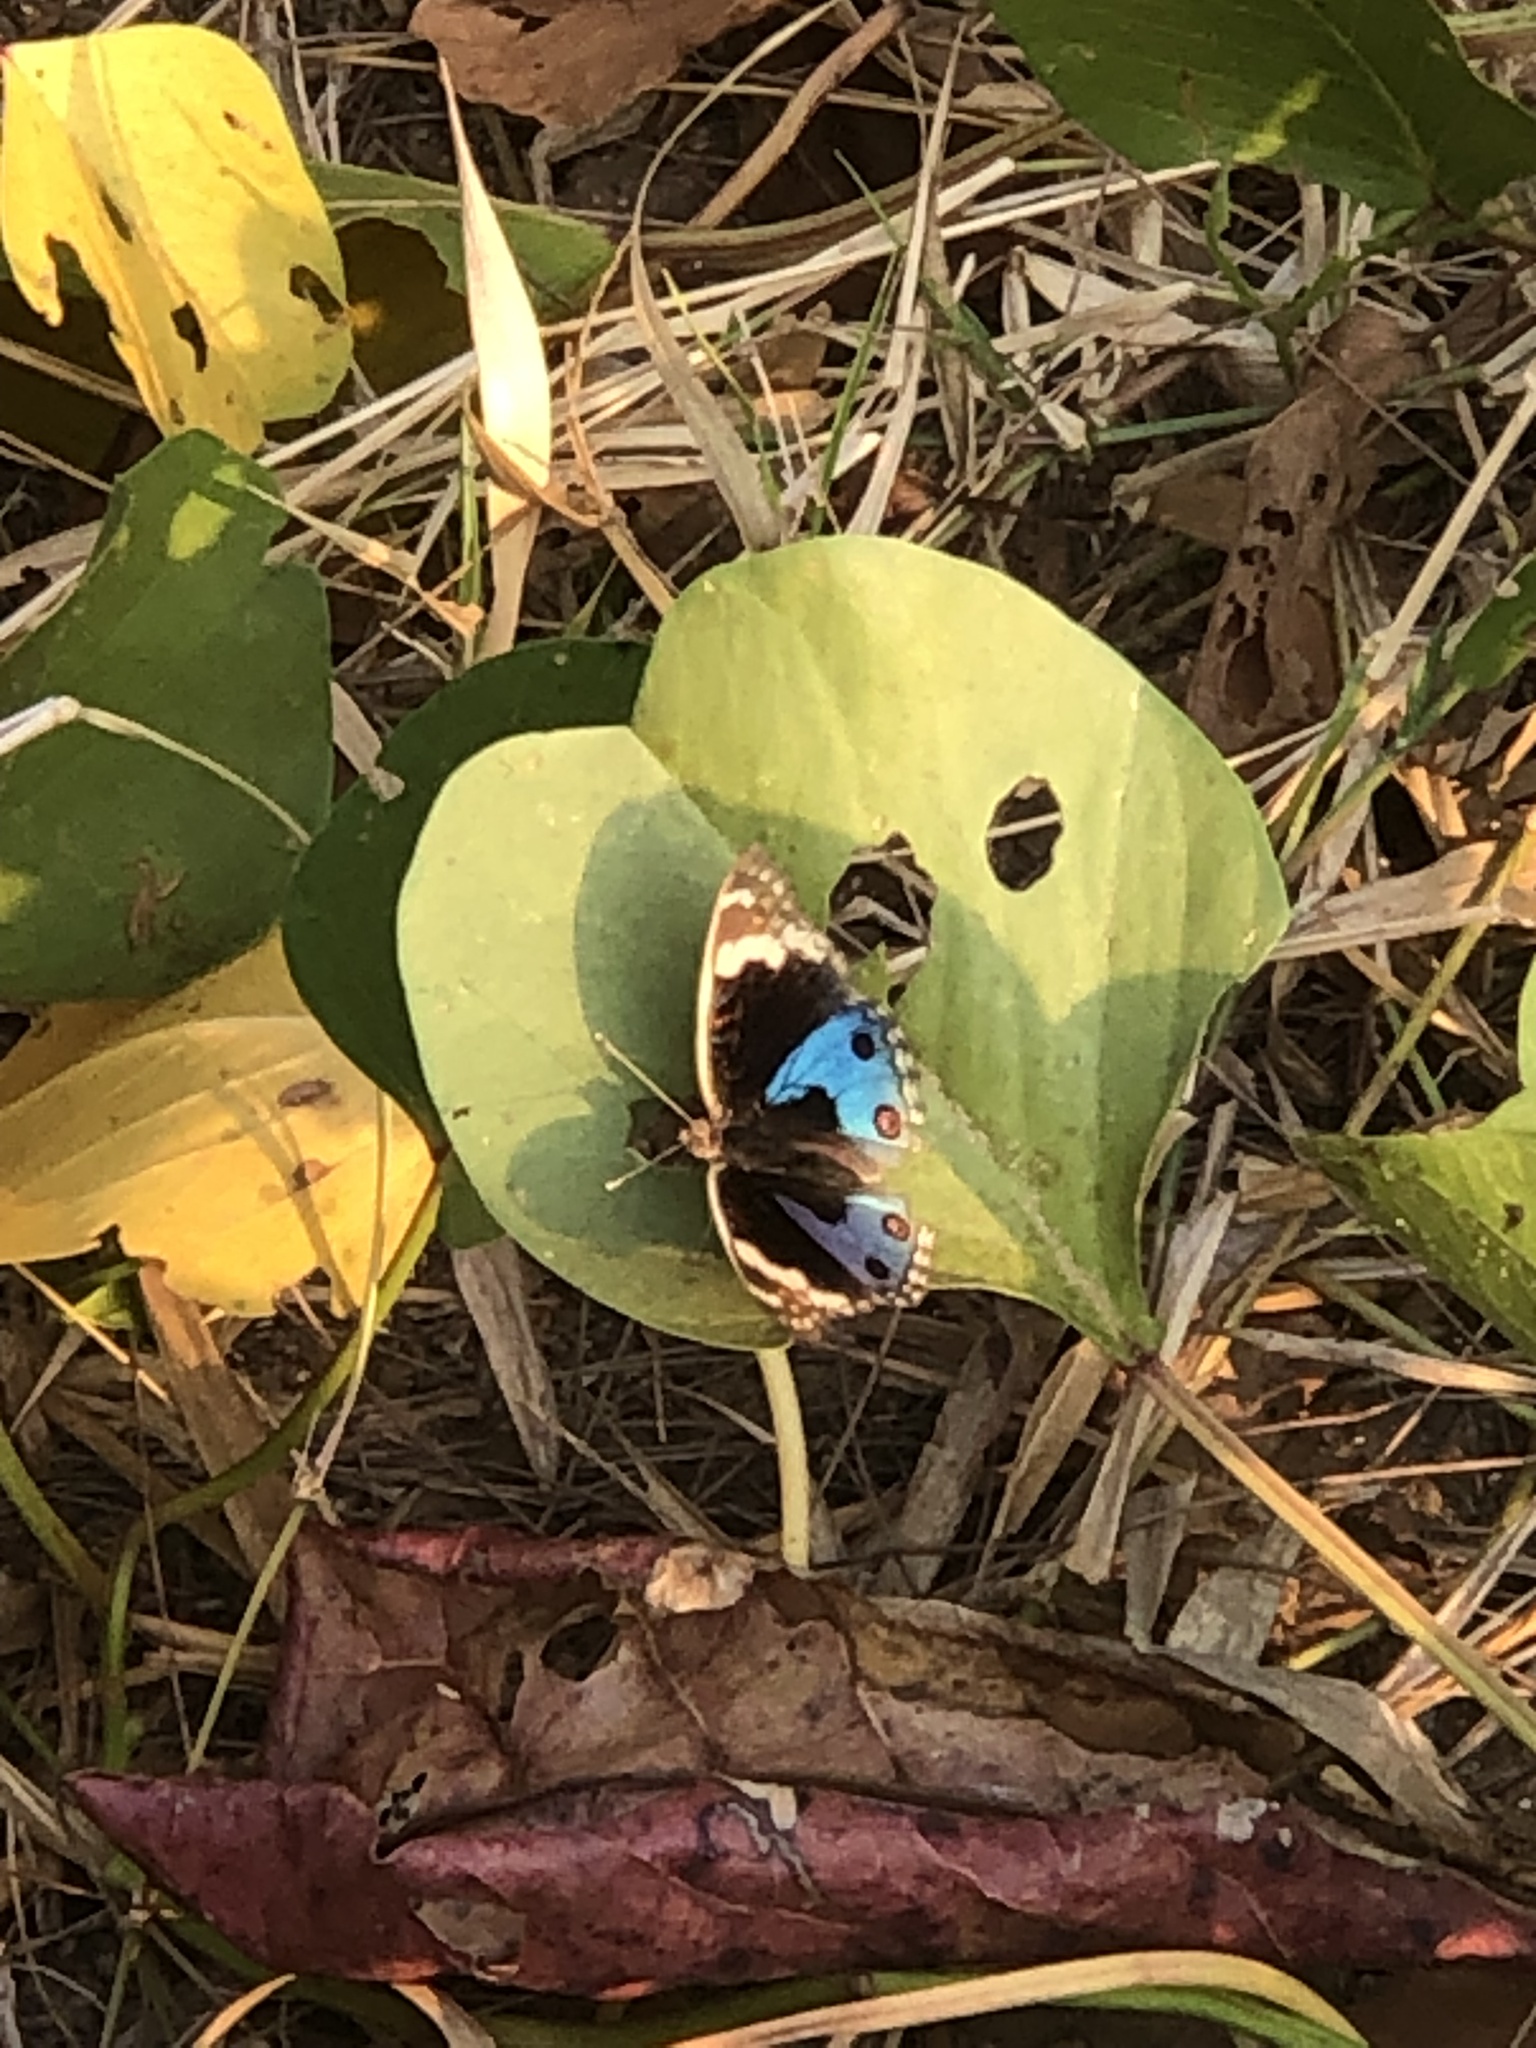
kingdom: Animalia
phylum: Arthropoda
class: Insecta
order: Lepidoptera
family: Nymphalidae
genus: Junonia
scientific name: Junonia orithya
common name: Blue pansy
